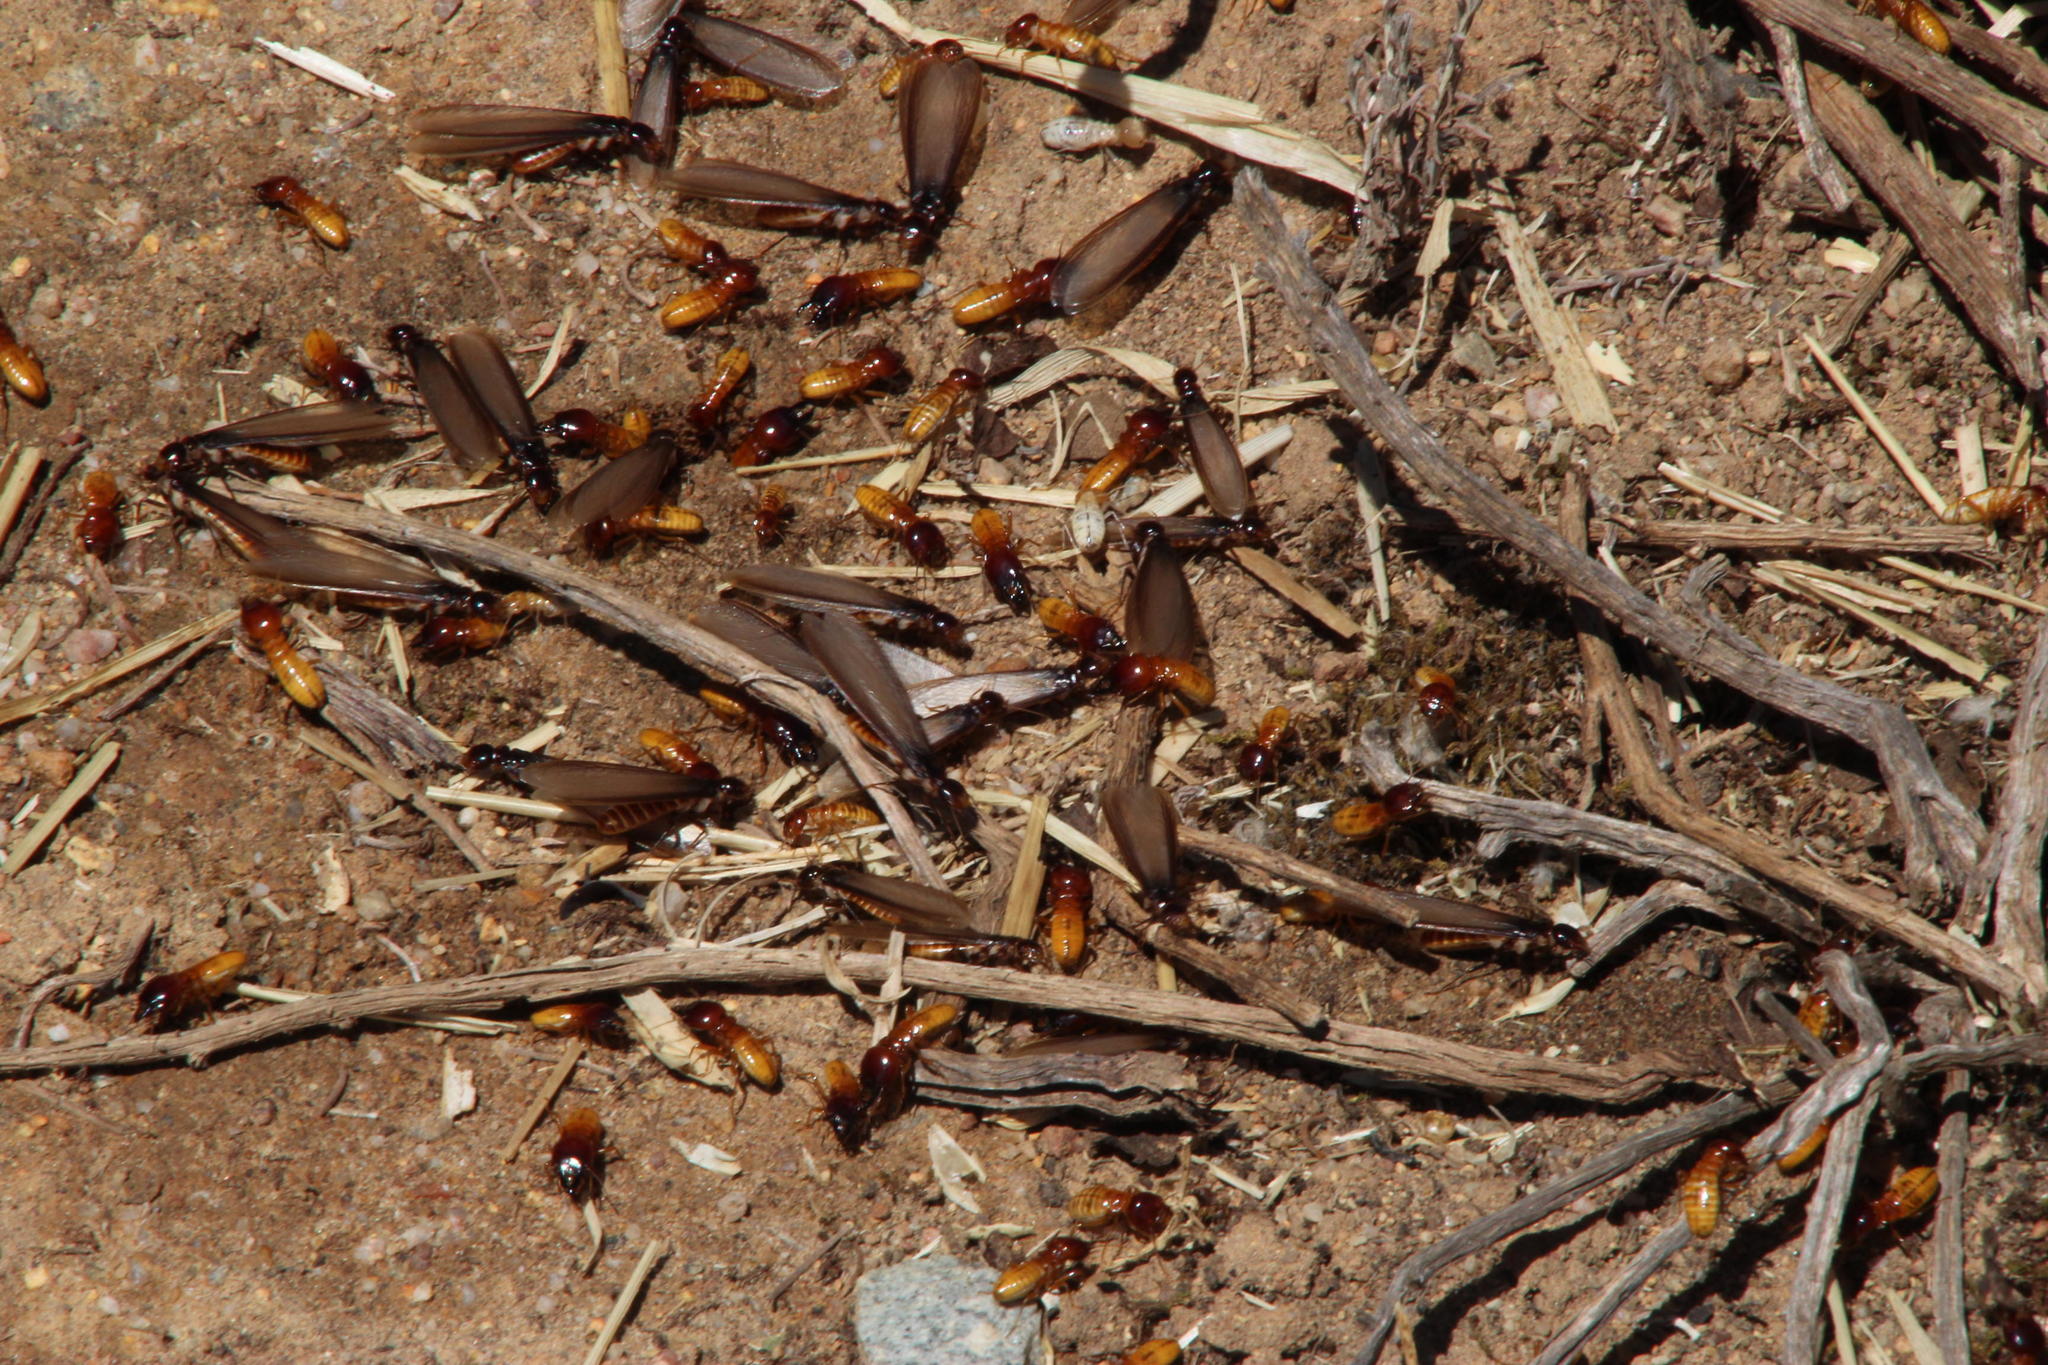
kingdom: Animalia
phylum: Arthropoda
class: Insecta
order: Blattodea
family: Hodotermitidae
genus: Microhodotermes
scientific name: Microhodotermes viator
